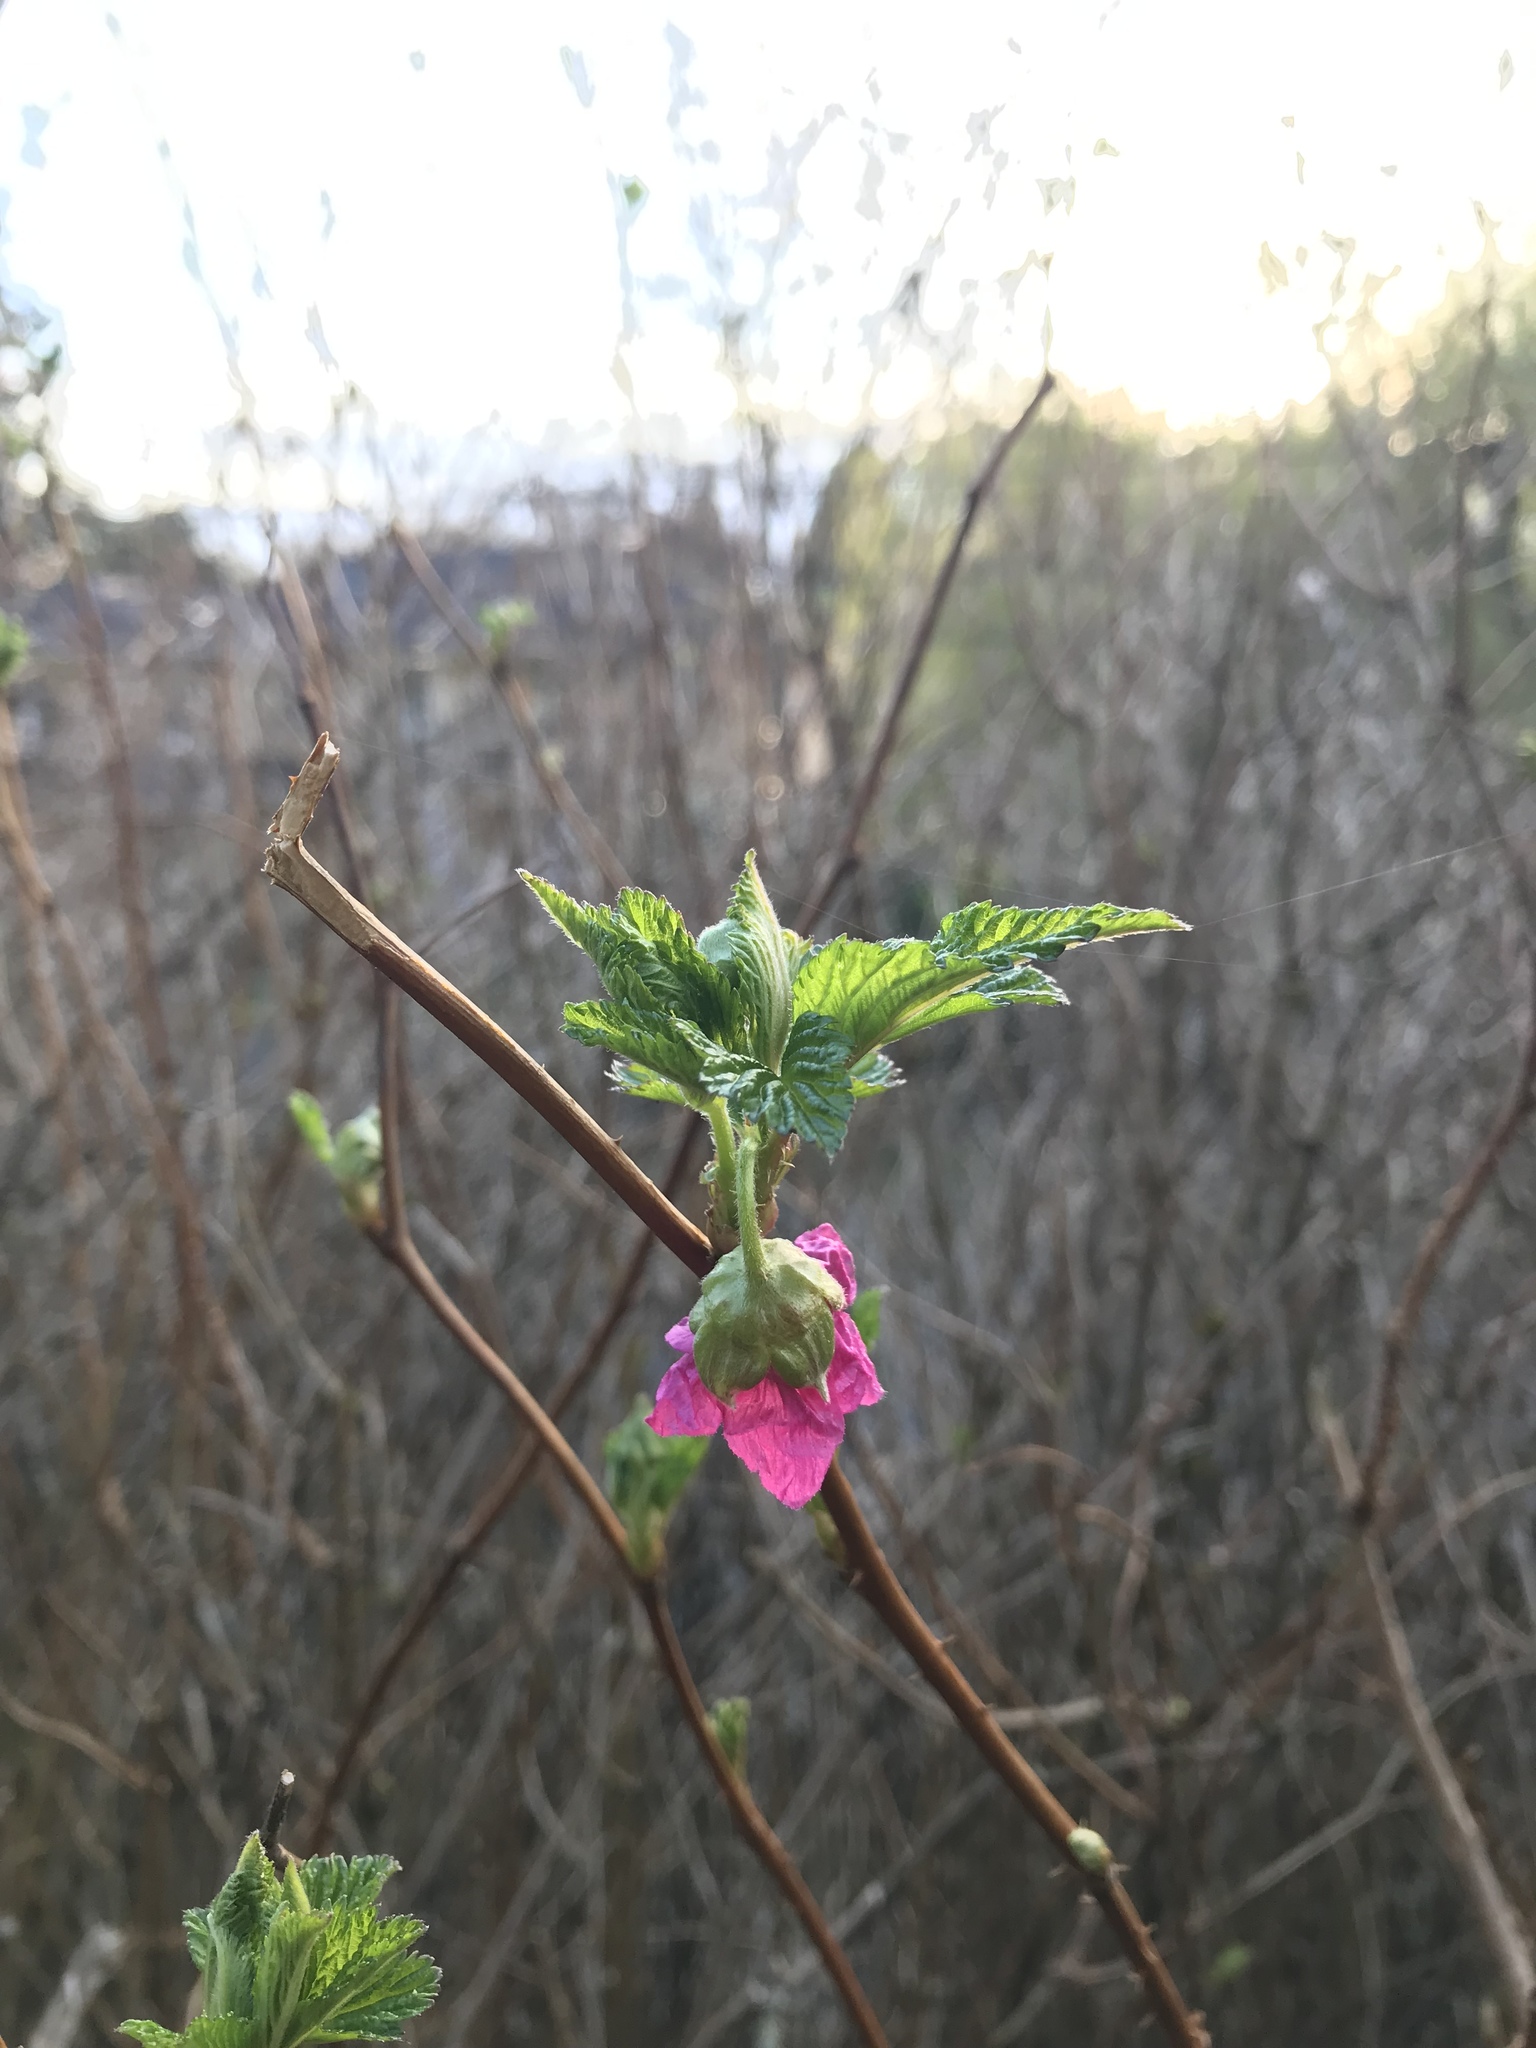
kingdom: Plantae
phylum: Tracheophyta
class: Magnoliopsida
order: Rosales
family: Rosaceae
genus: Rubus
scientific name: Rubus spectabilis
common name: Salmonberry
